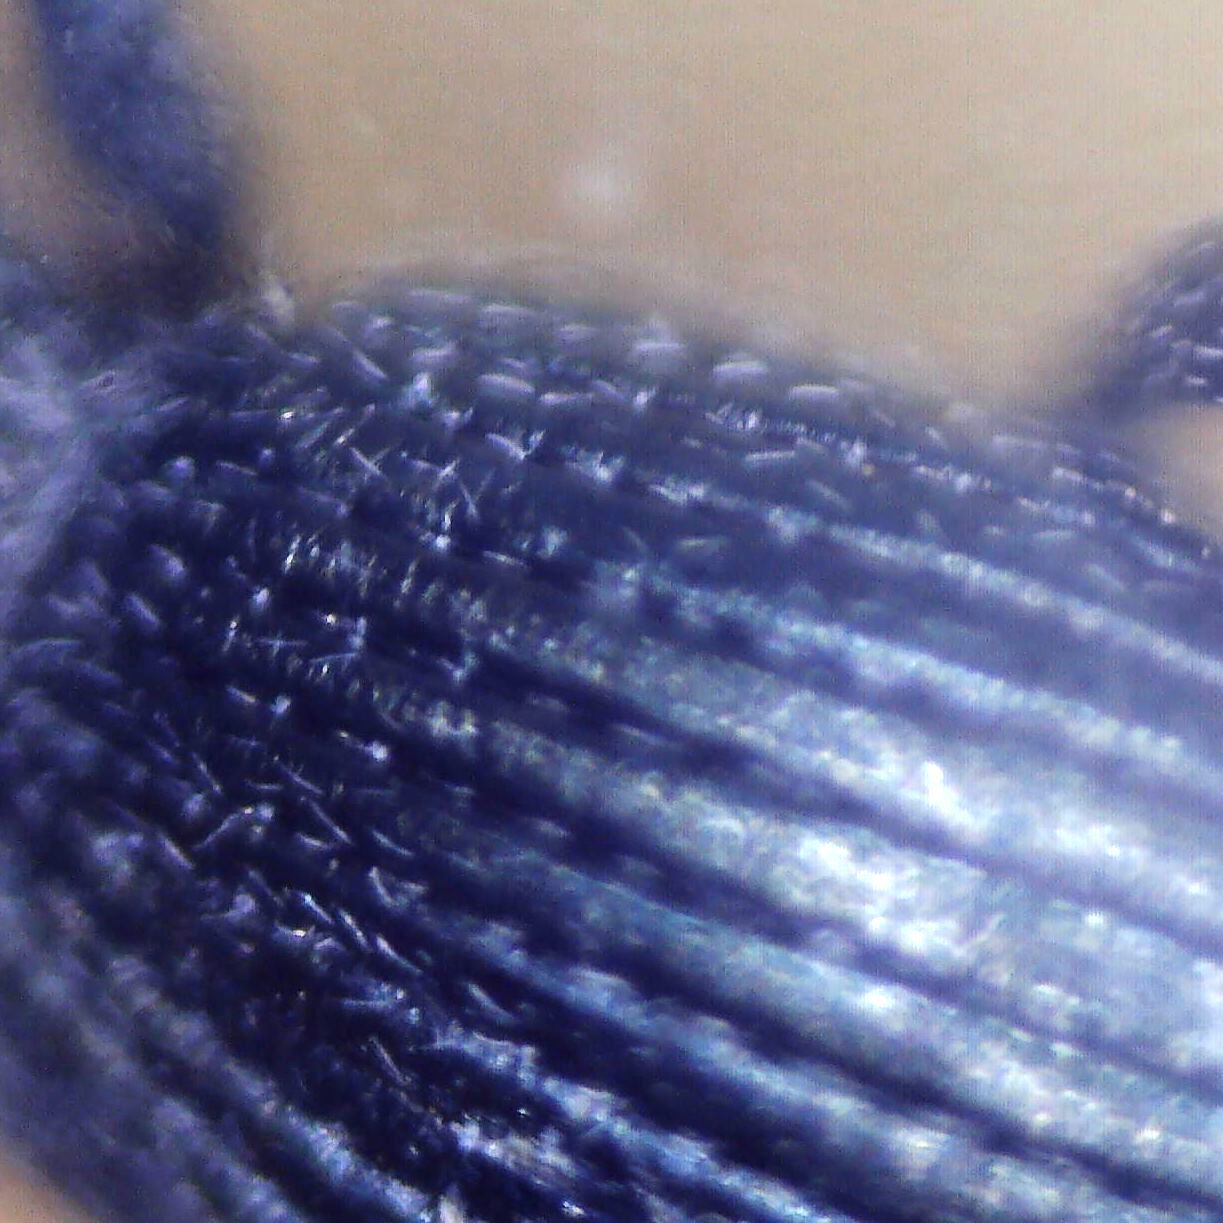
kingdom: Animalia
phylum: Arthropoda
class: Insecta
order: Coleoptera
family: Apionidae
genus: Ceratapion
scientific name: Ceratapion onopordi
